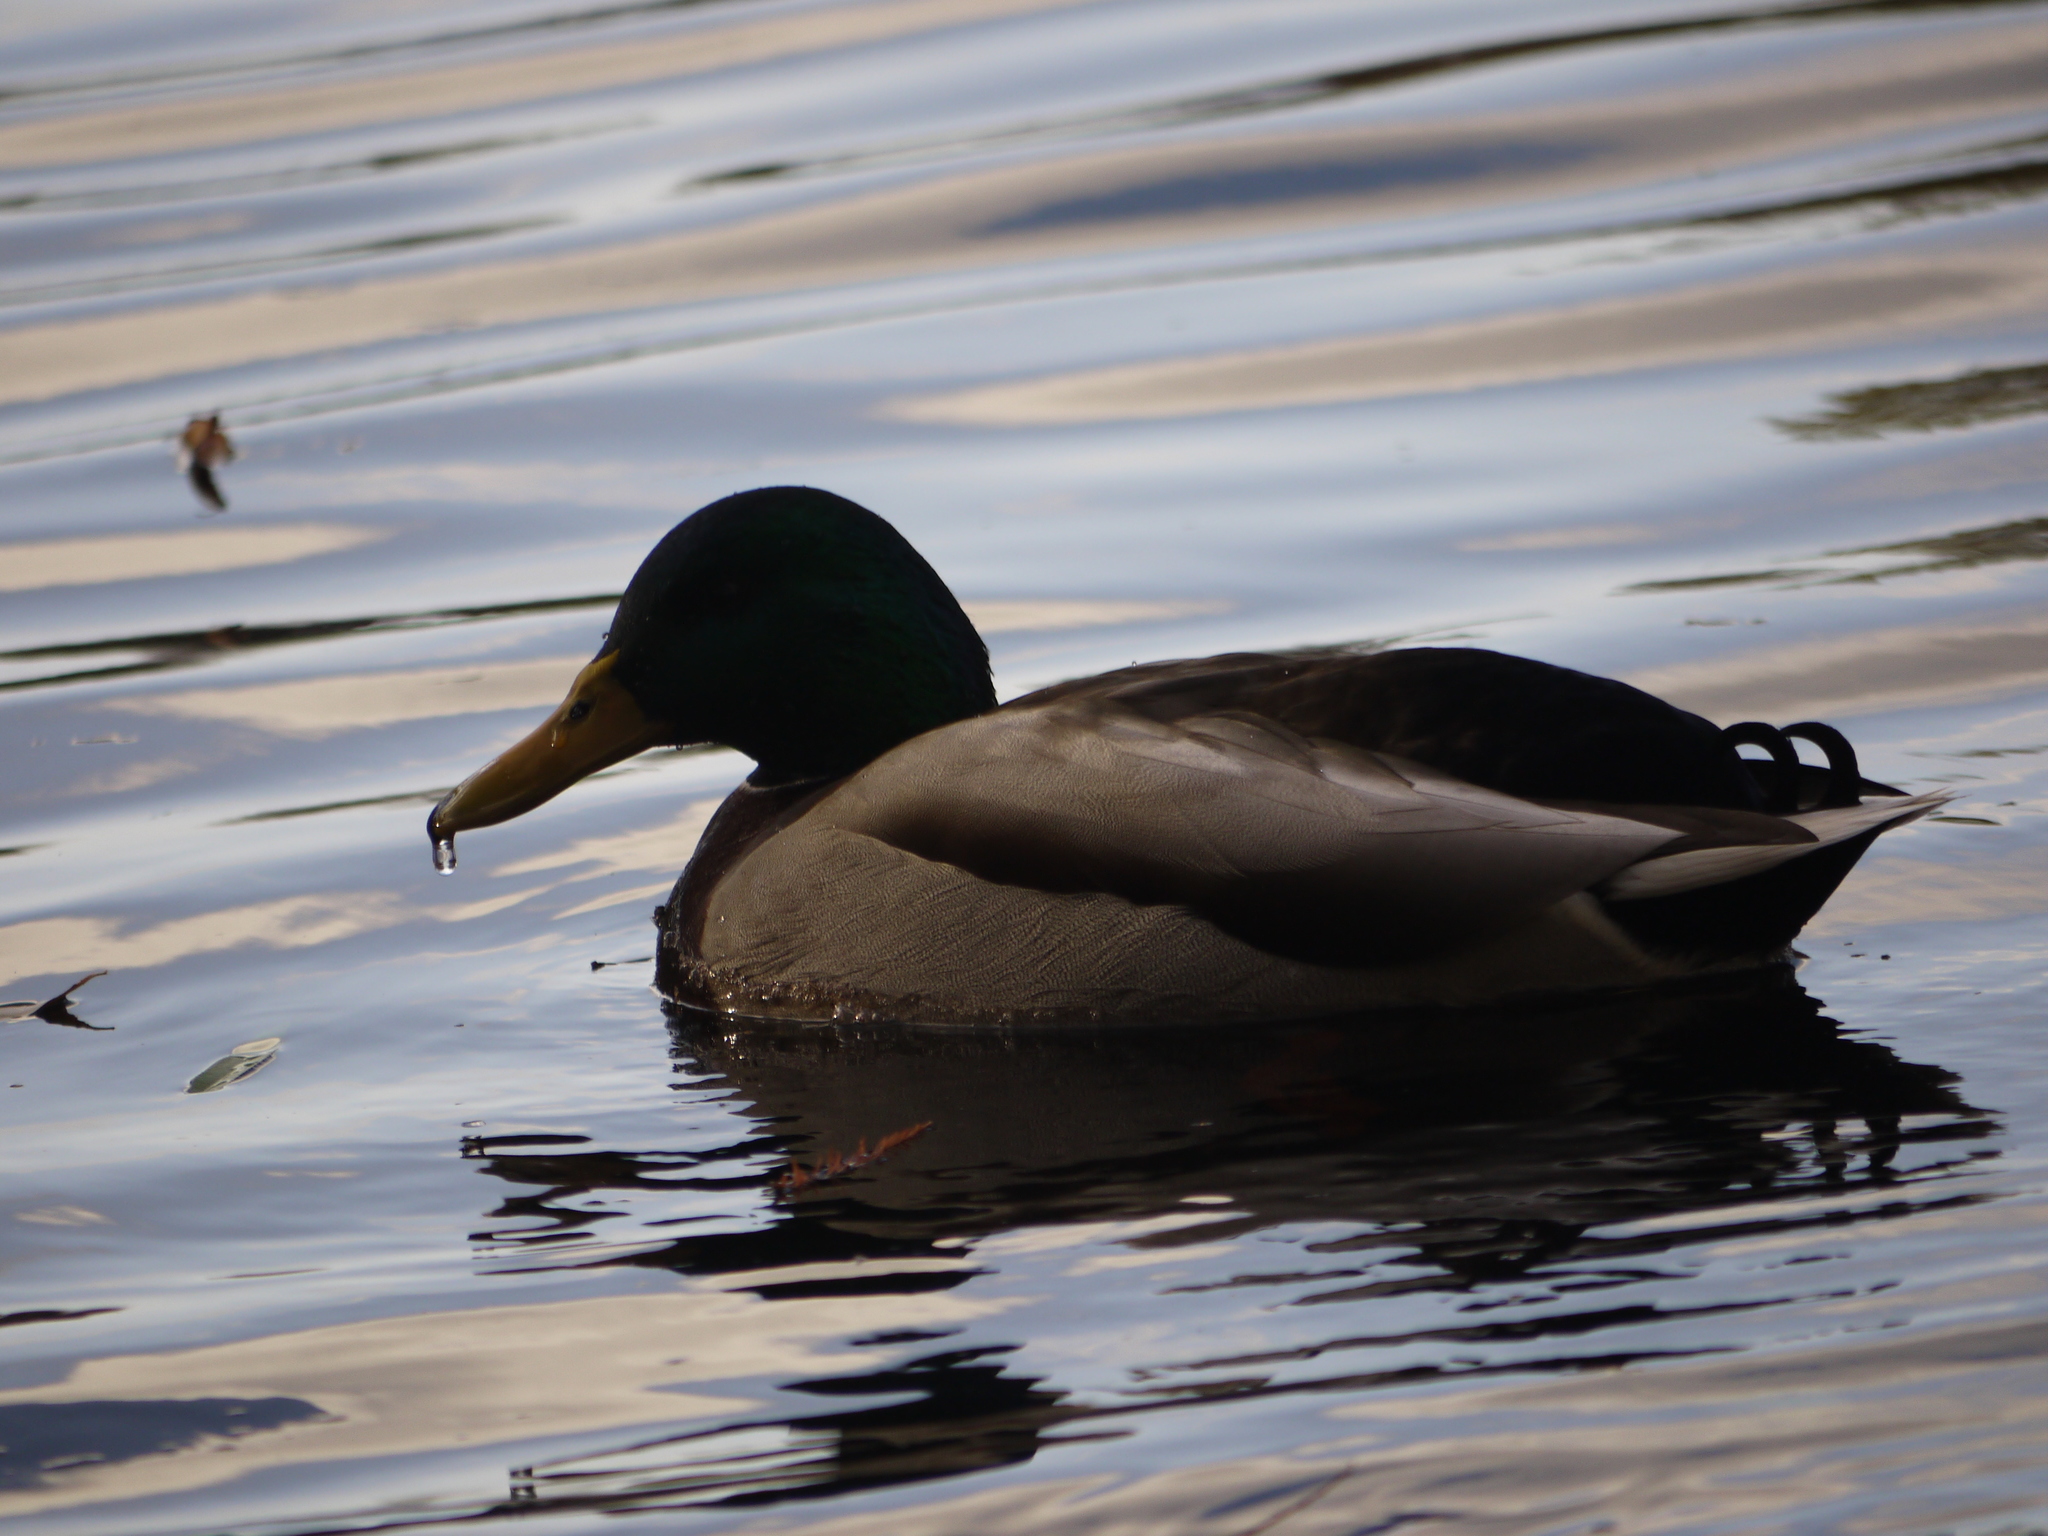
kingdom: Animalia
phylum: Chordata
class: Aves
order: Anseriformes
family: Anatidae
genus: Anas
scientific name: Anas platyrhynchos
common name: Mallard
